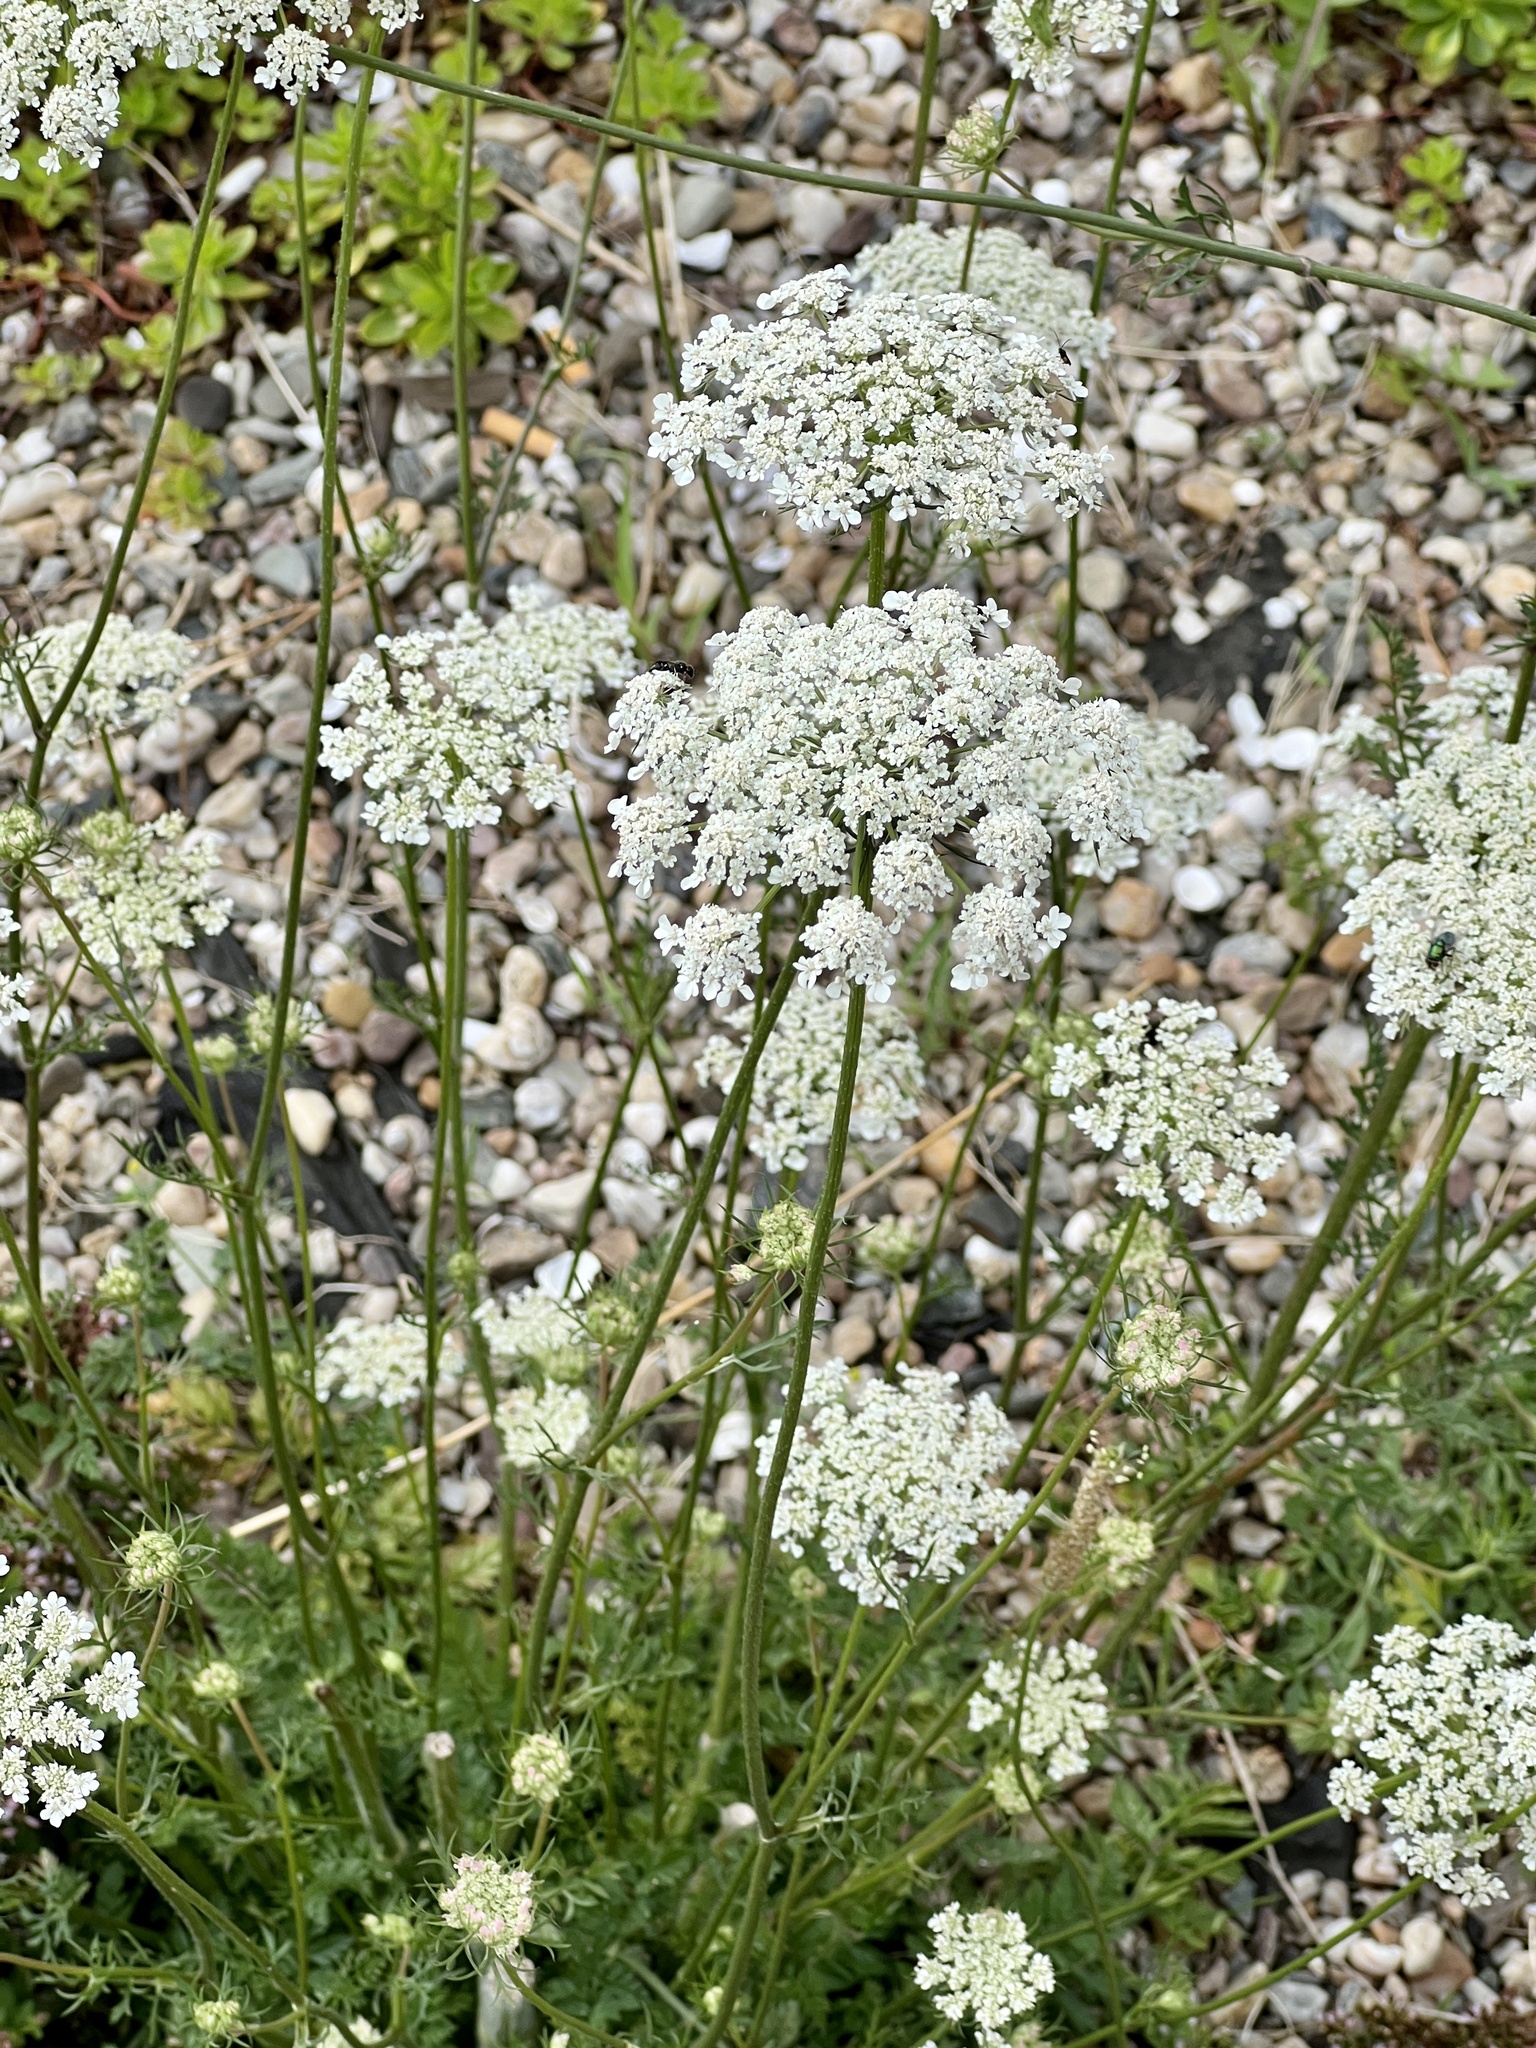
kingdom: Plantae
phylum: Tracheophyta
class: Magnoliopsida
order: Apiales
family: Apiaceae
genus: Daucus
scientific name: Daucus carota
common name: Wild carrot
